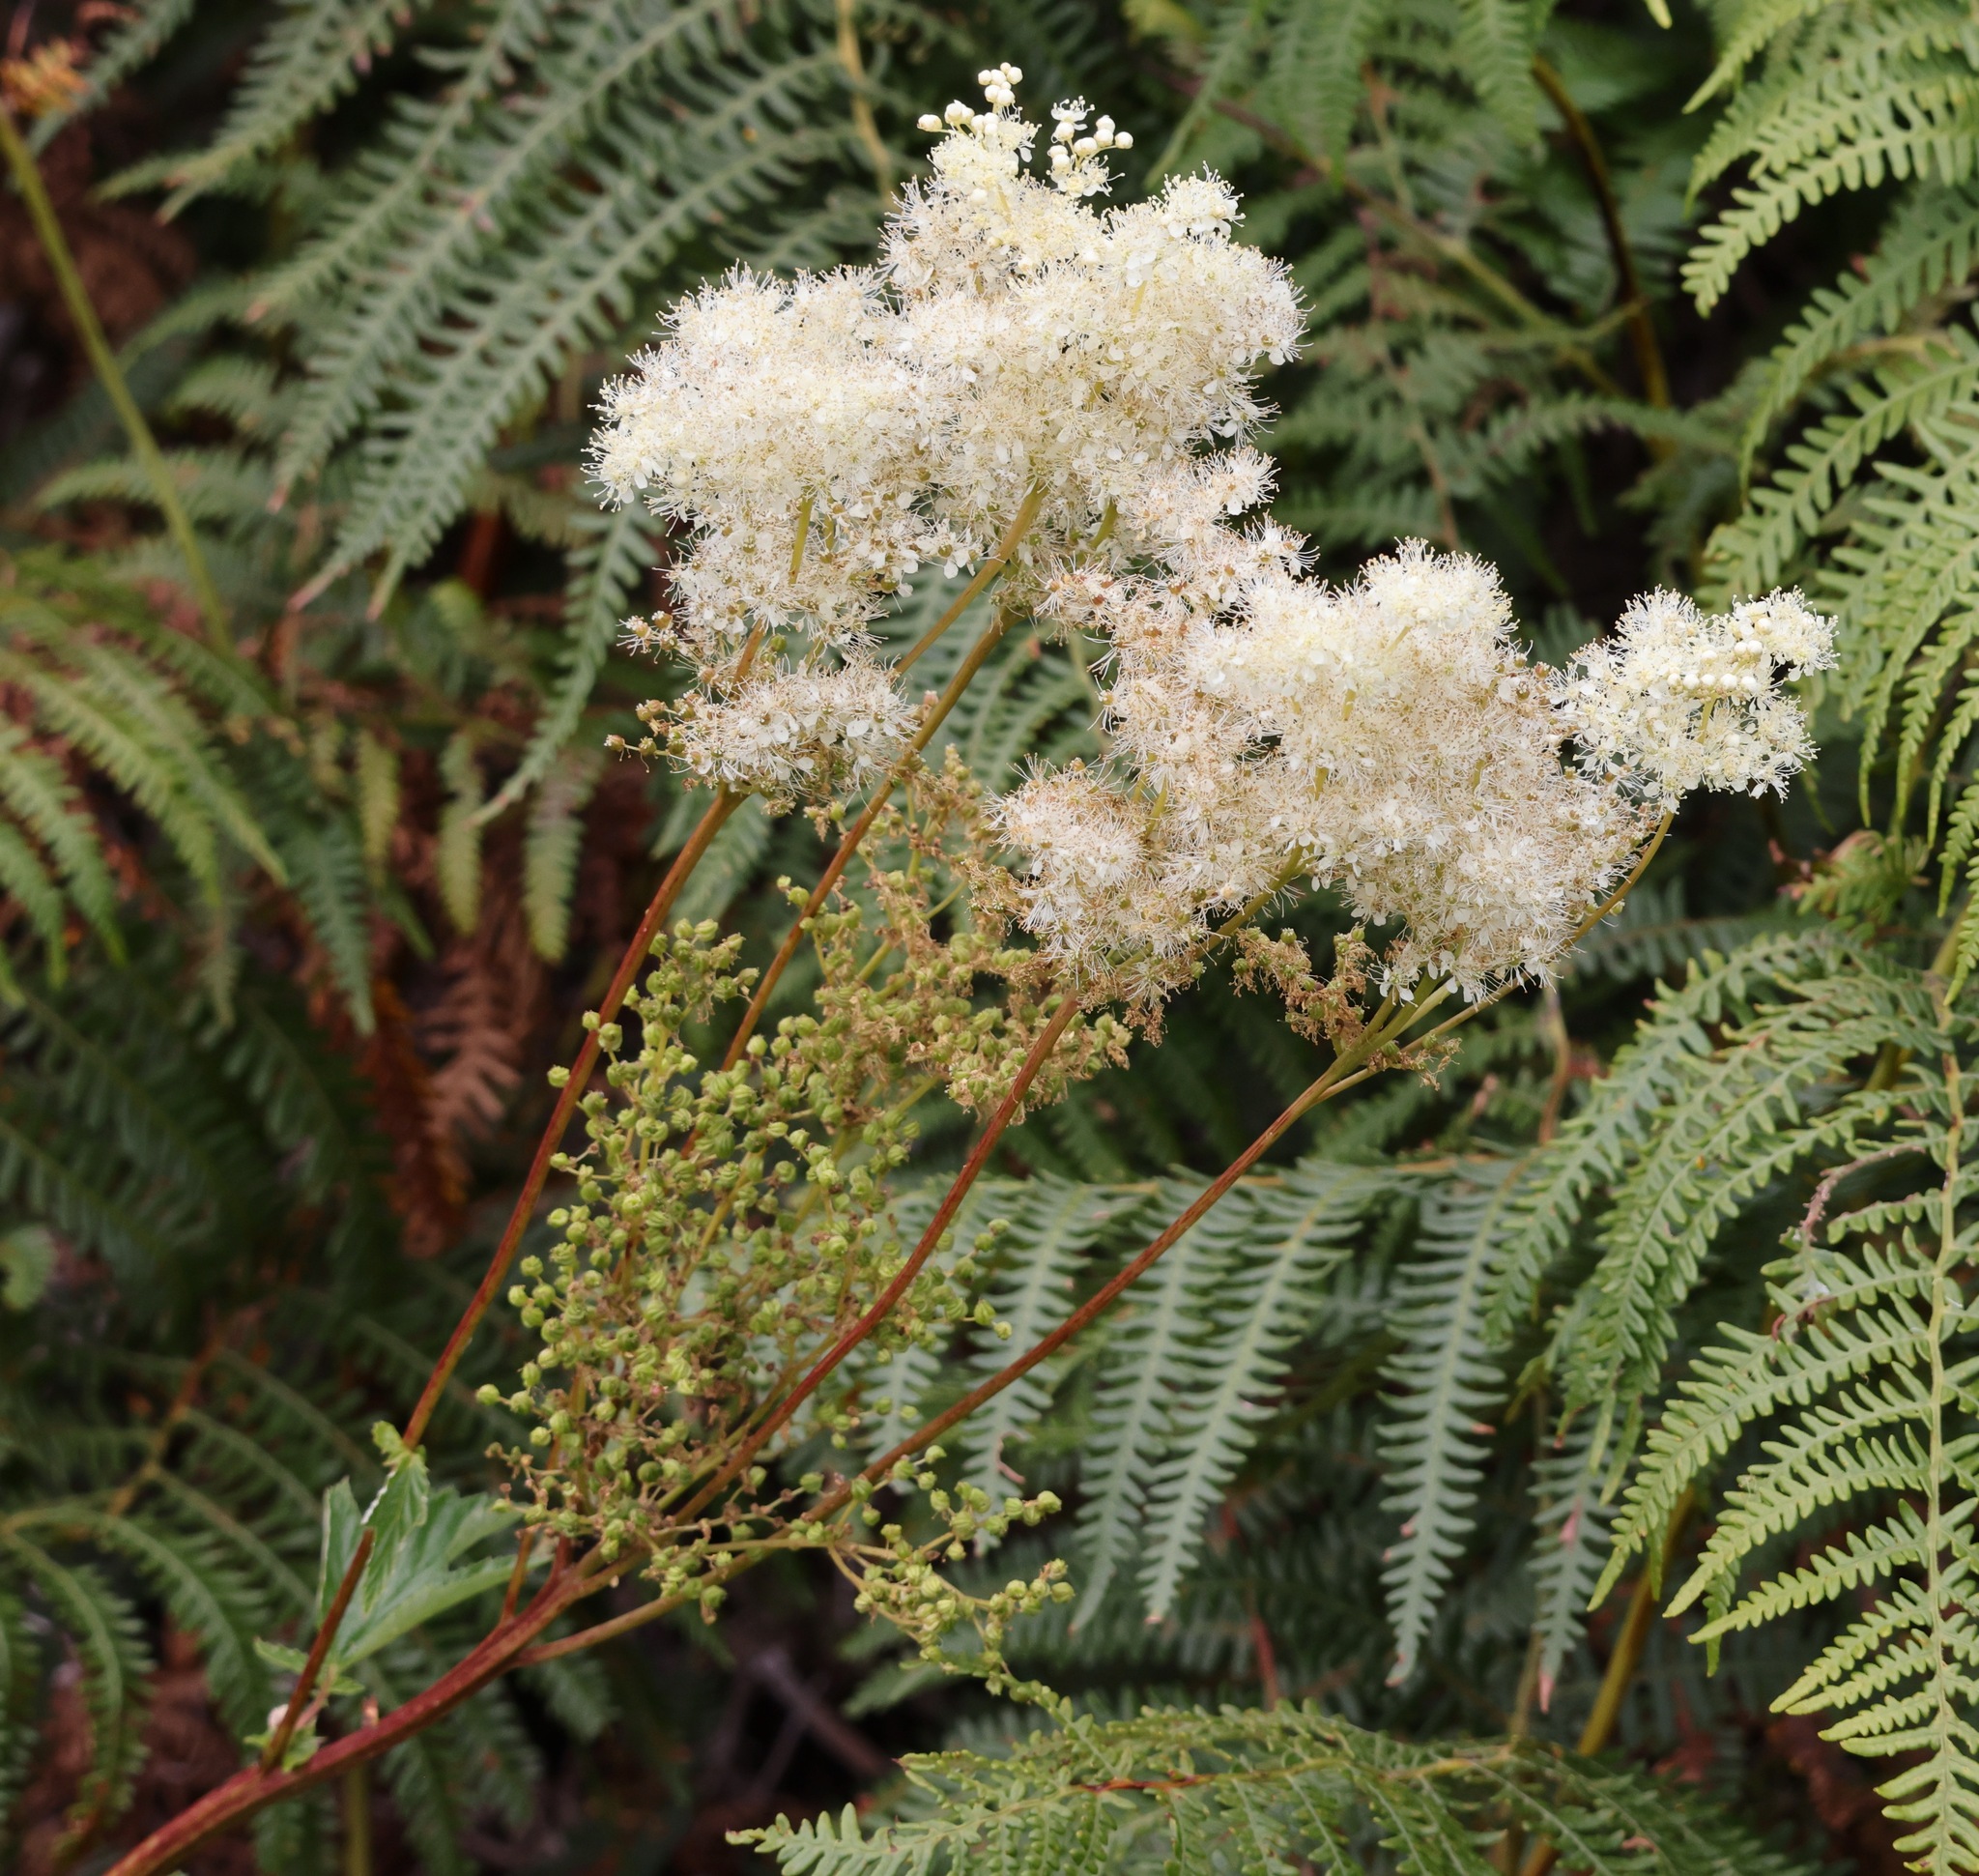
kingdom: Plantae
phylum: Tracheophyta
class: Magnoliopsida
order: Rosales
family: Rosaceae
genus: Filipendula
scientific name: Filipendula ulmaria
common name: Meadowsweet
